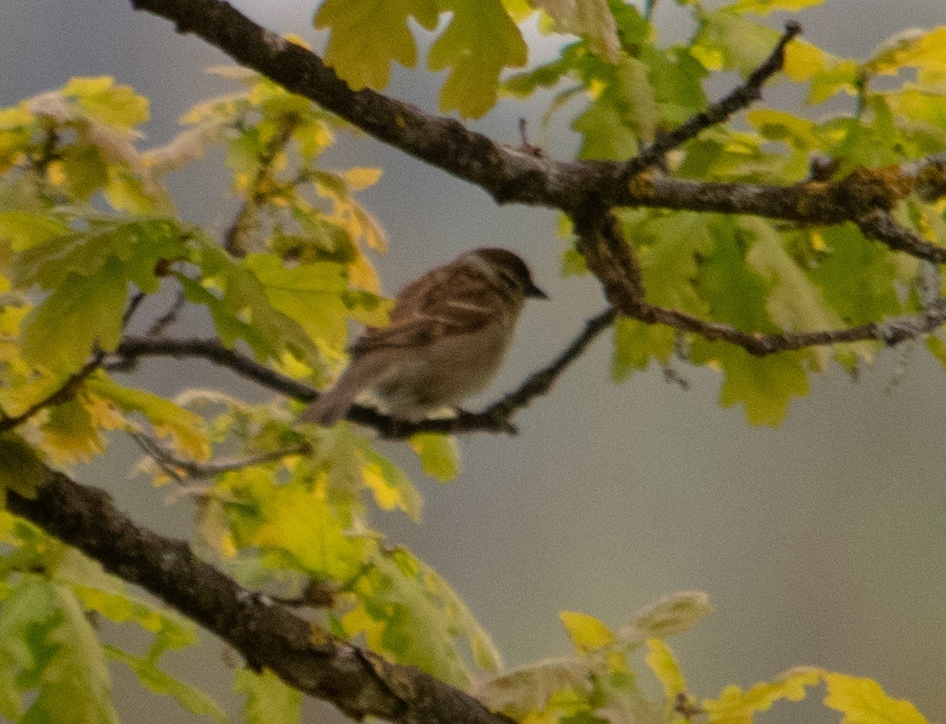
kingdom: Animalia
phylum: Chordata
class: Aves
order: Passeriformes
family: Passeridae
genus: Passer
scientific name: Passer montanus
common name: Eurasian tree sparrow
